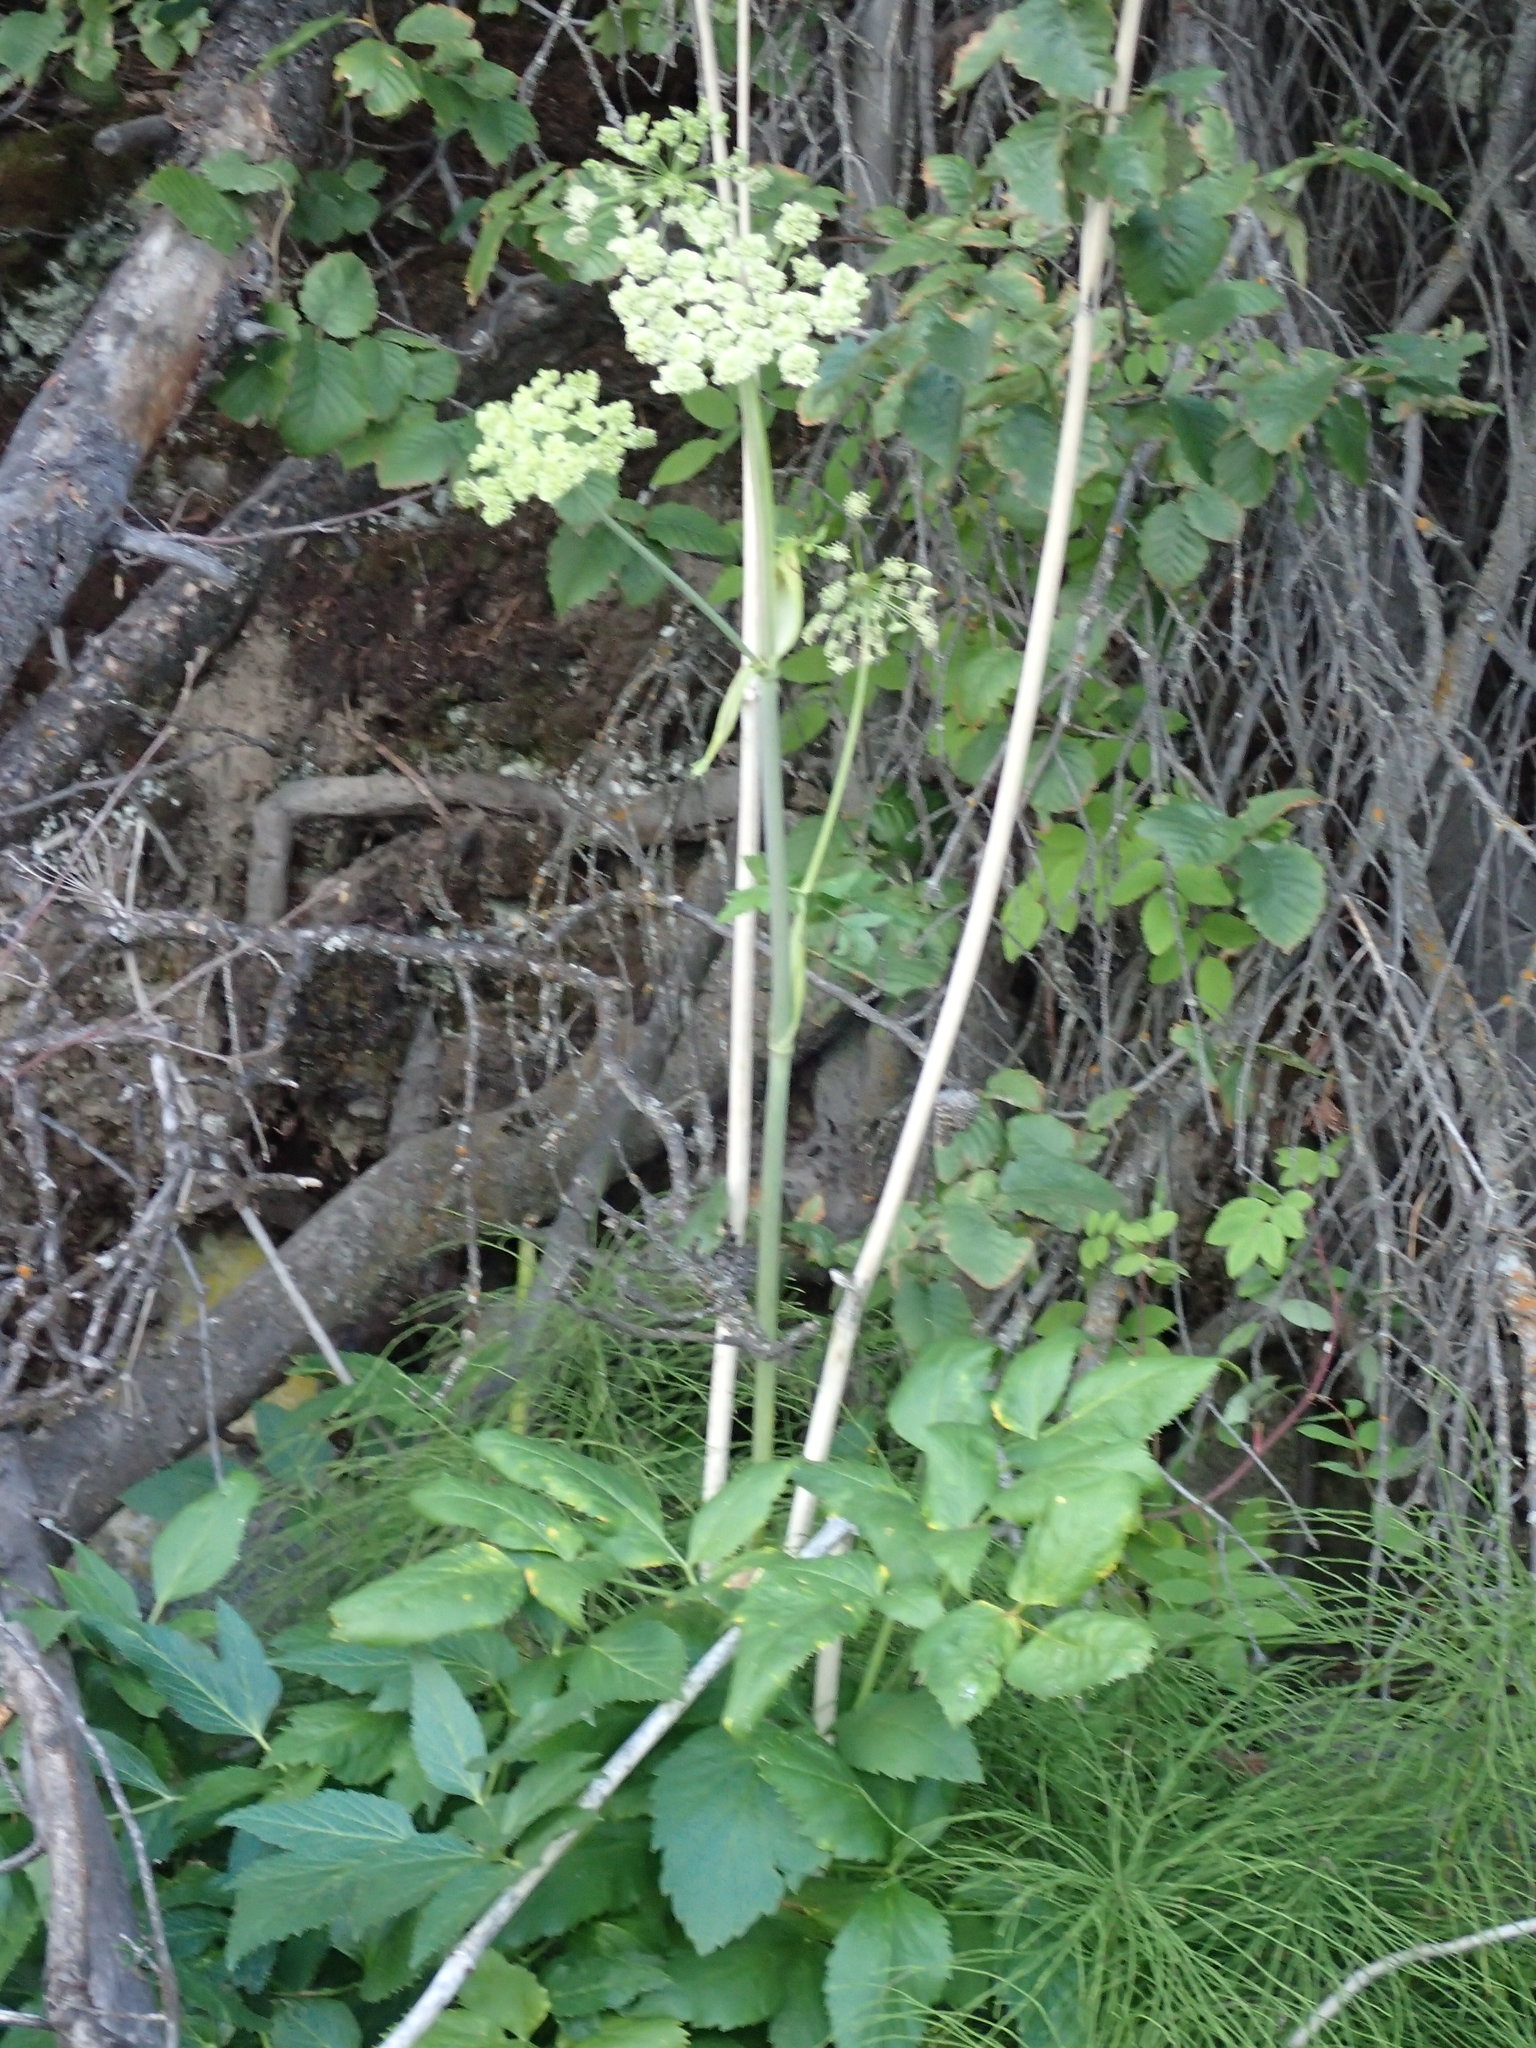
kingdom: Plantae
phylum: Tracheophyta
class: Magnoliopsida
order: Apiales
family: Apiaceae
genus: Angelica
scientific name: Angelica arguta
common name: Lyall's angelica
